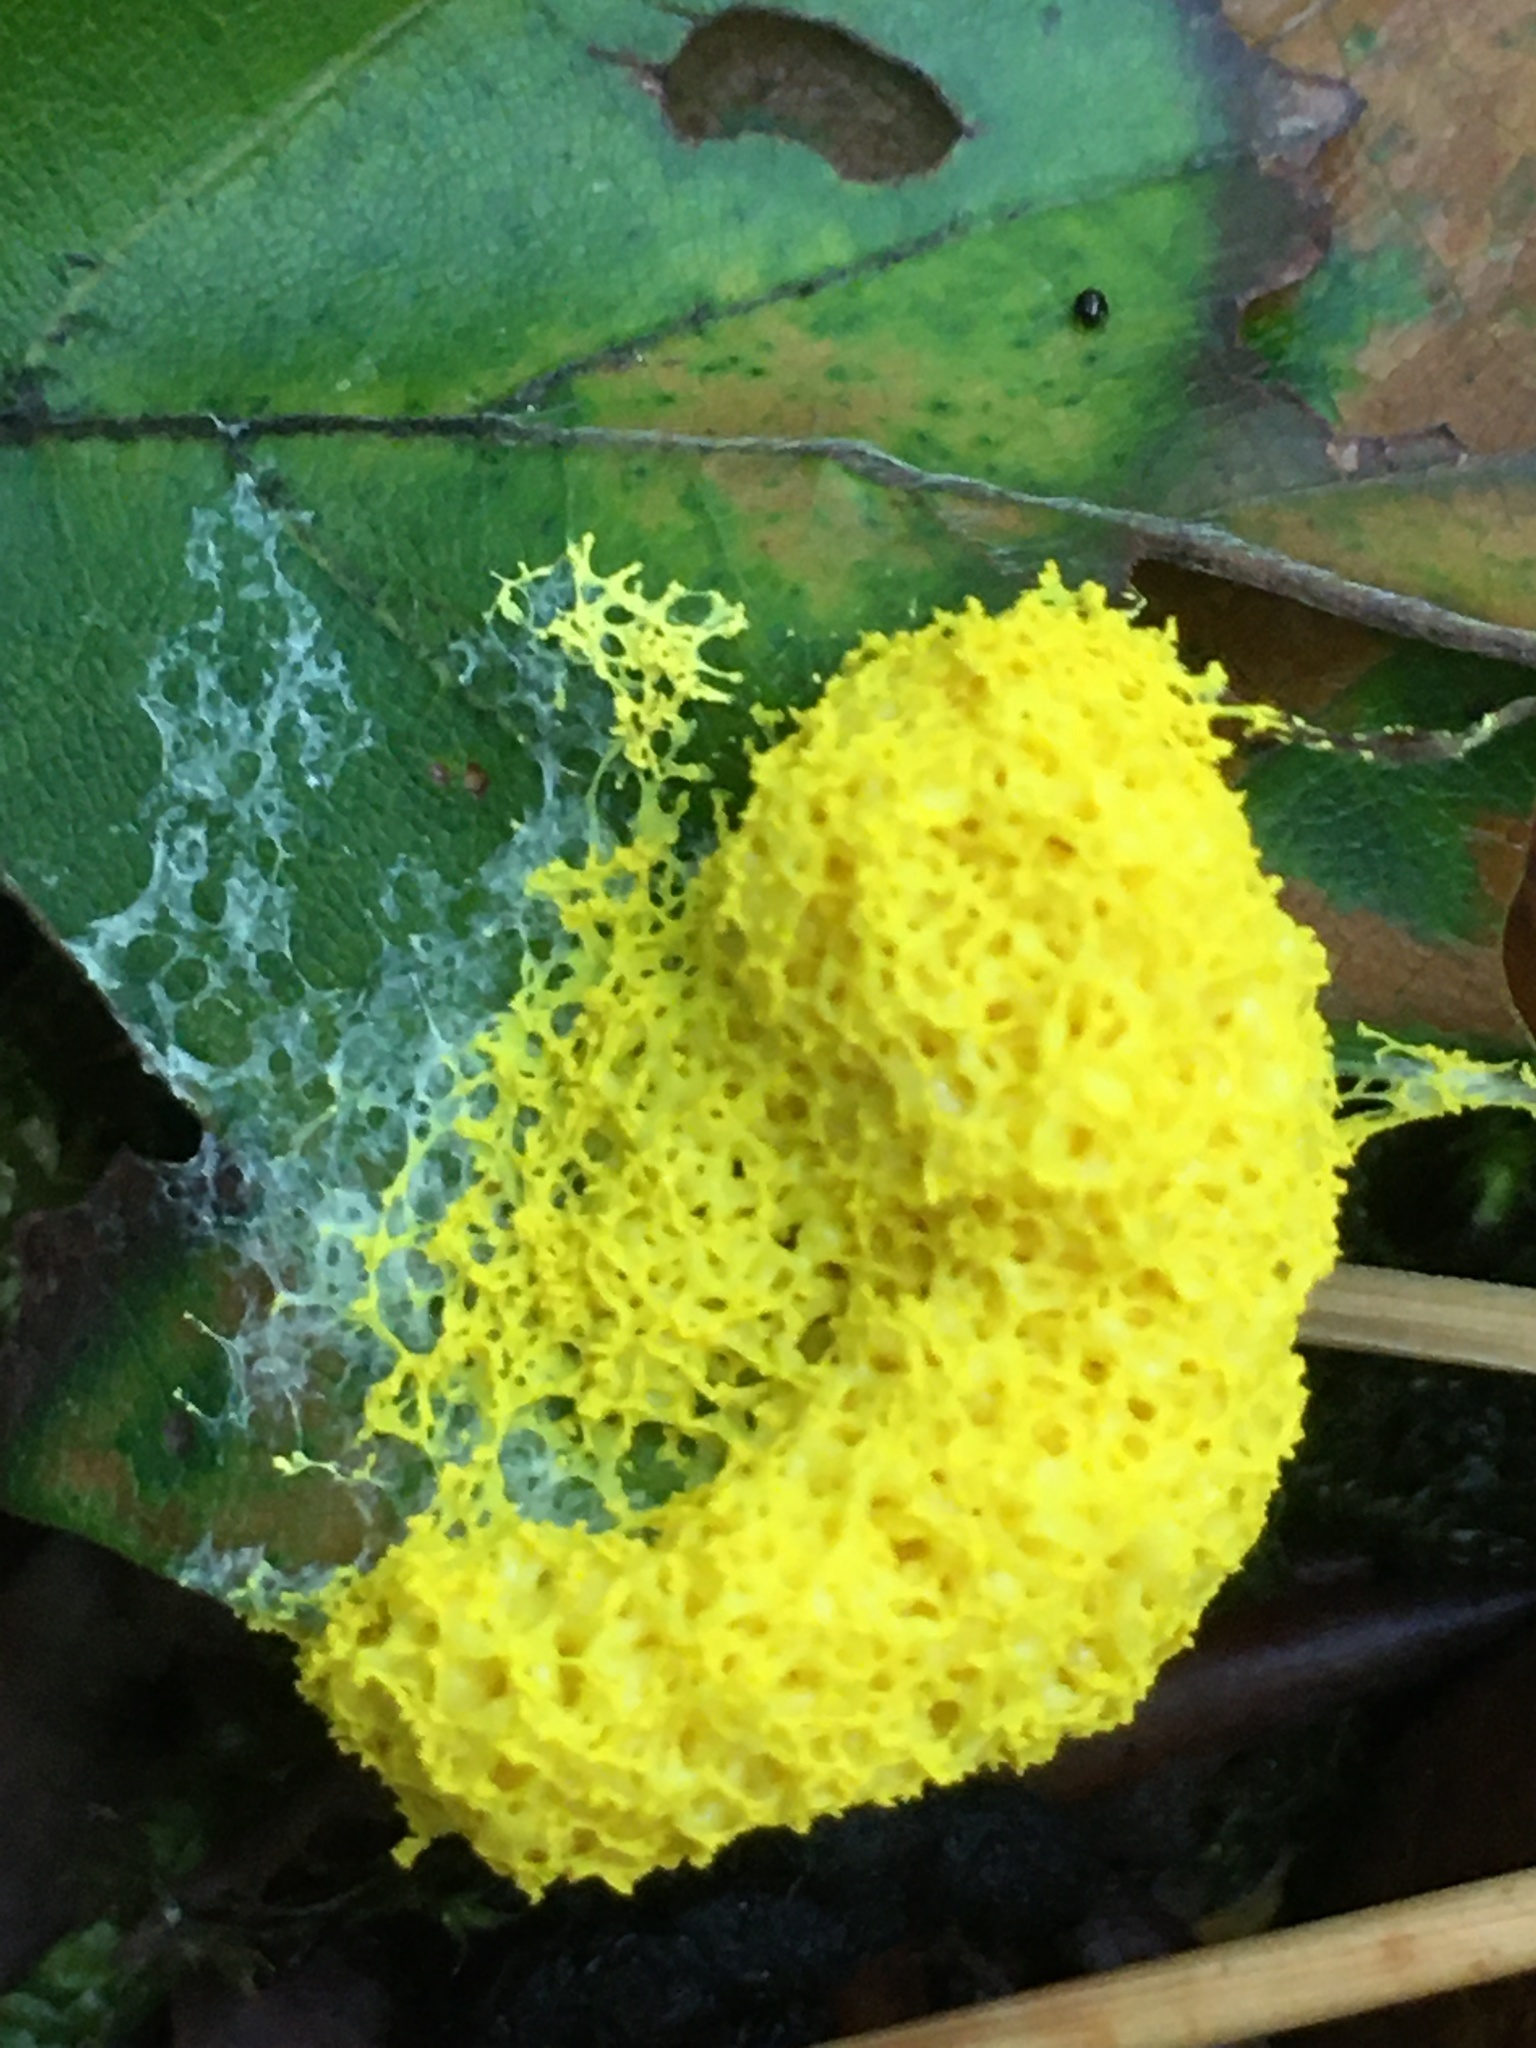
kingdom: Protozoa
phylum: Mycetozoa
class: Myxomycetes
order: Physarales
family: Physaraceae
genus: Fuligo
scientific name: Fuligo septica
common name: Dog vomit slime mold
